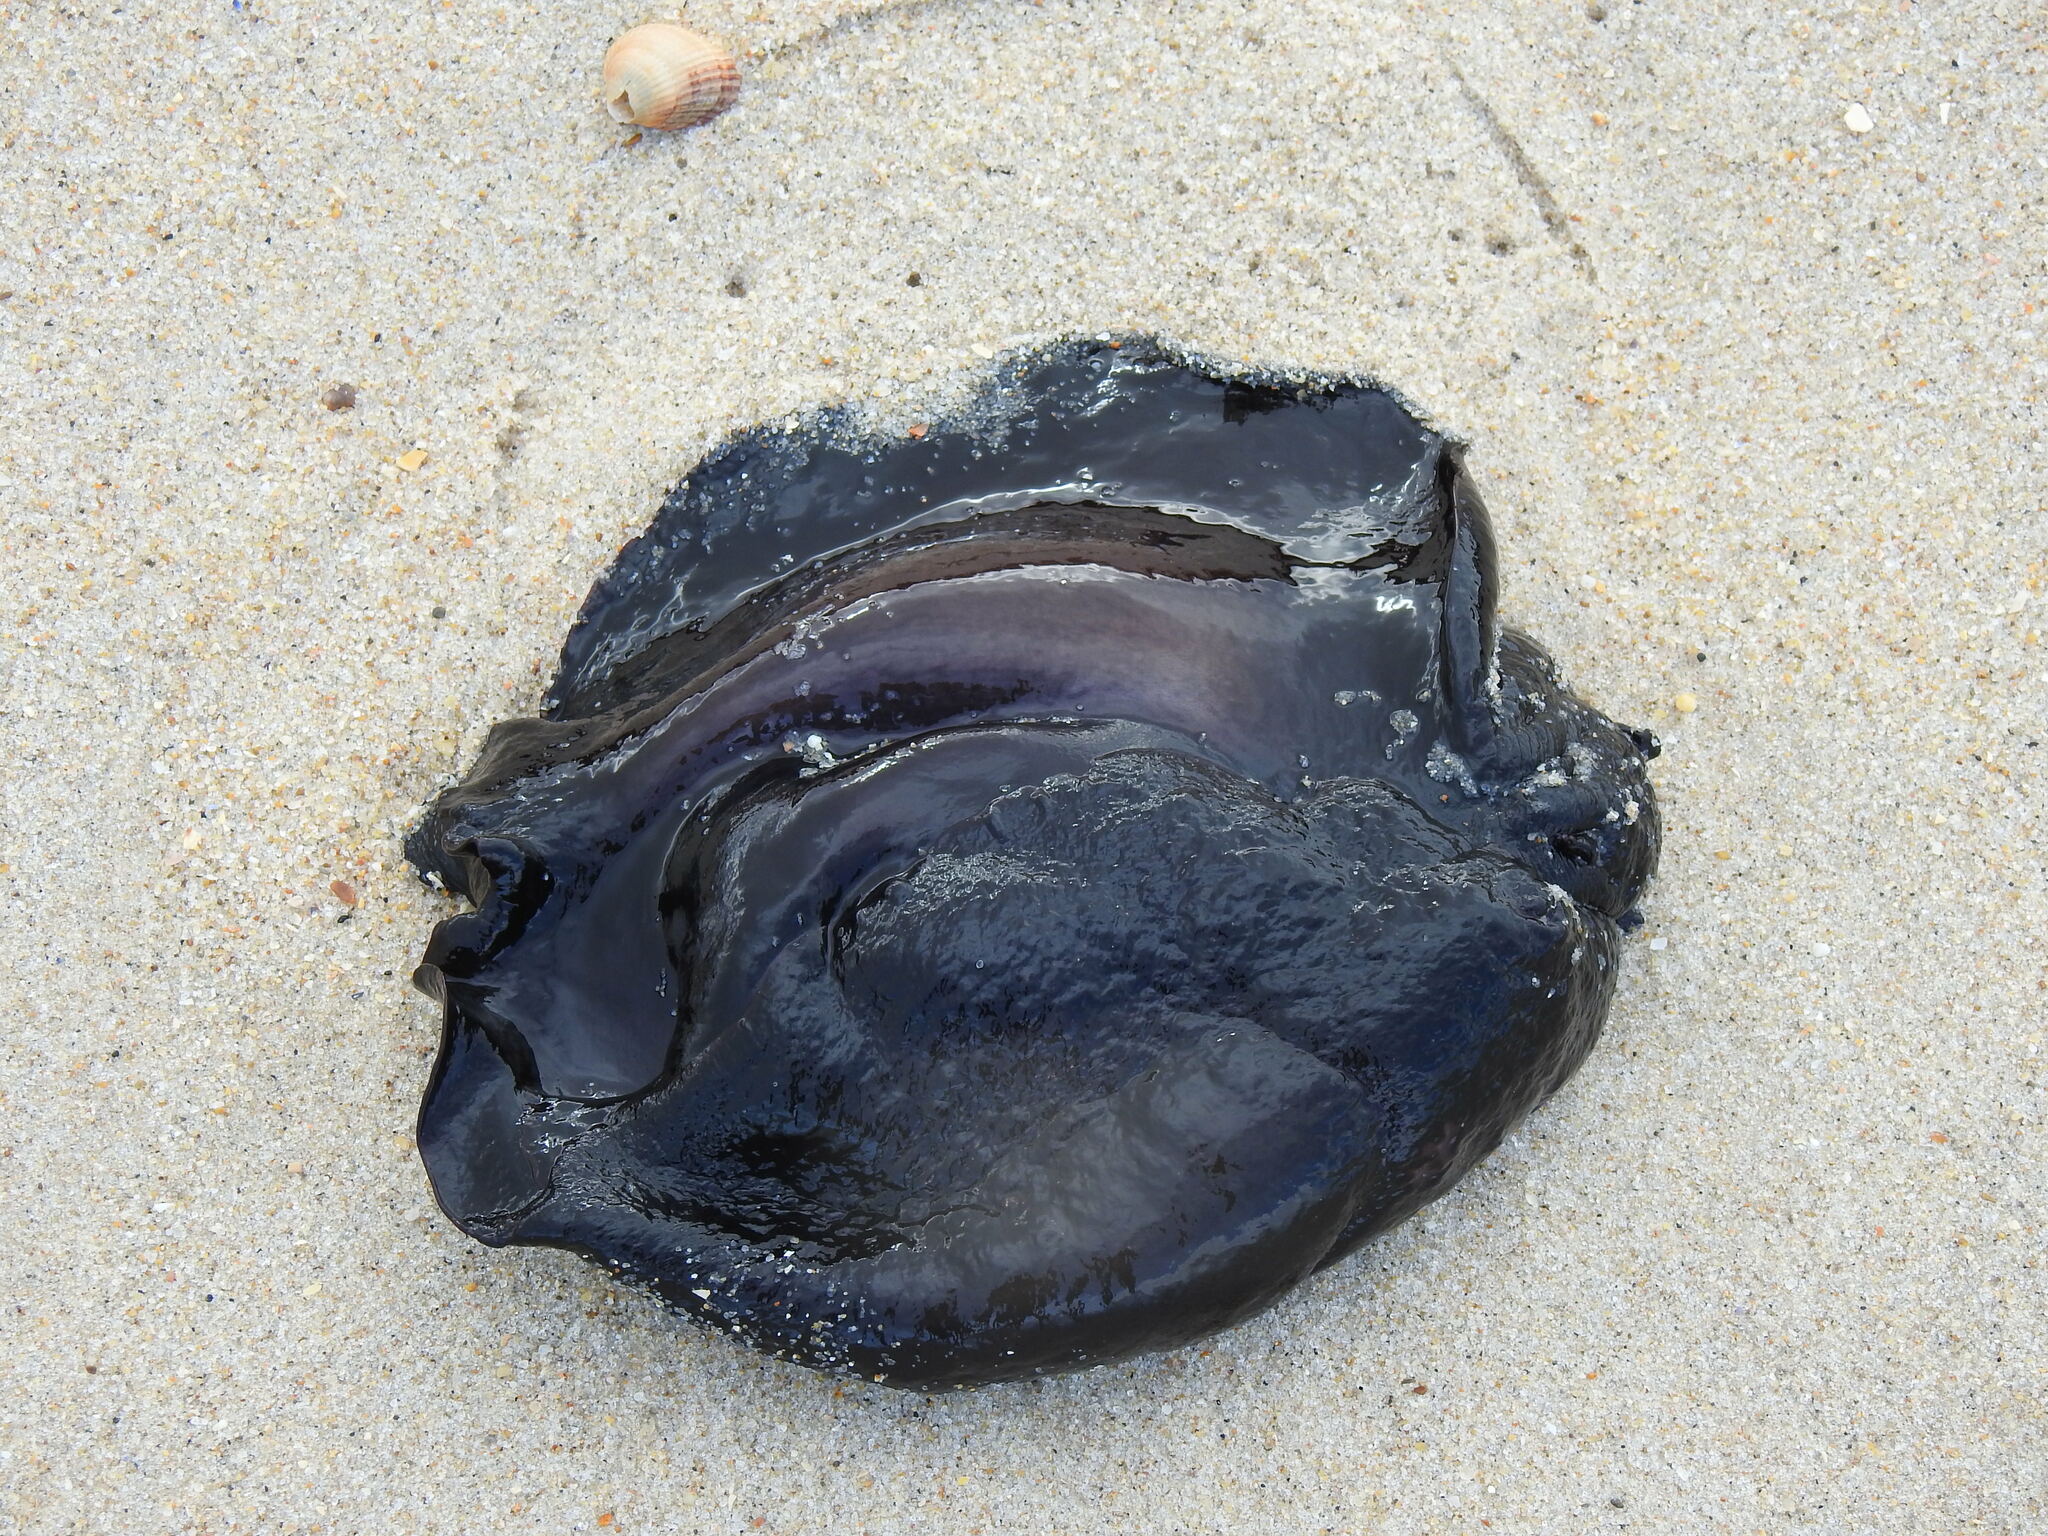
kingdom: Animalia
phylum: Mollusca
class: Gastropoda
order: Aplysiida
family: Aplysiidae
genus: Aplysia
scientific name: Aplysia fasciata
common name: Banded sea hare
